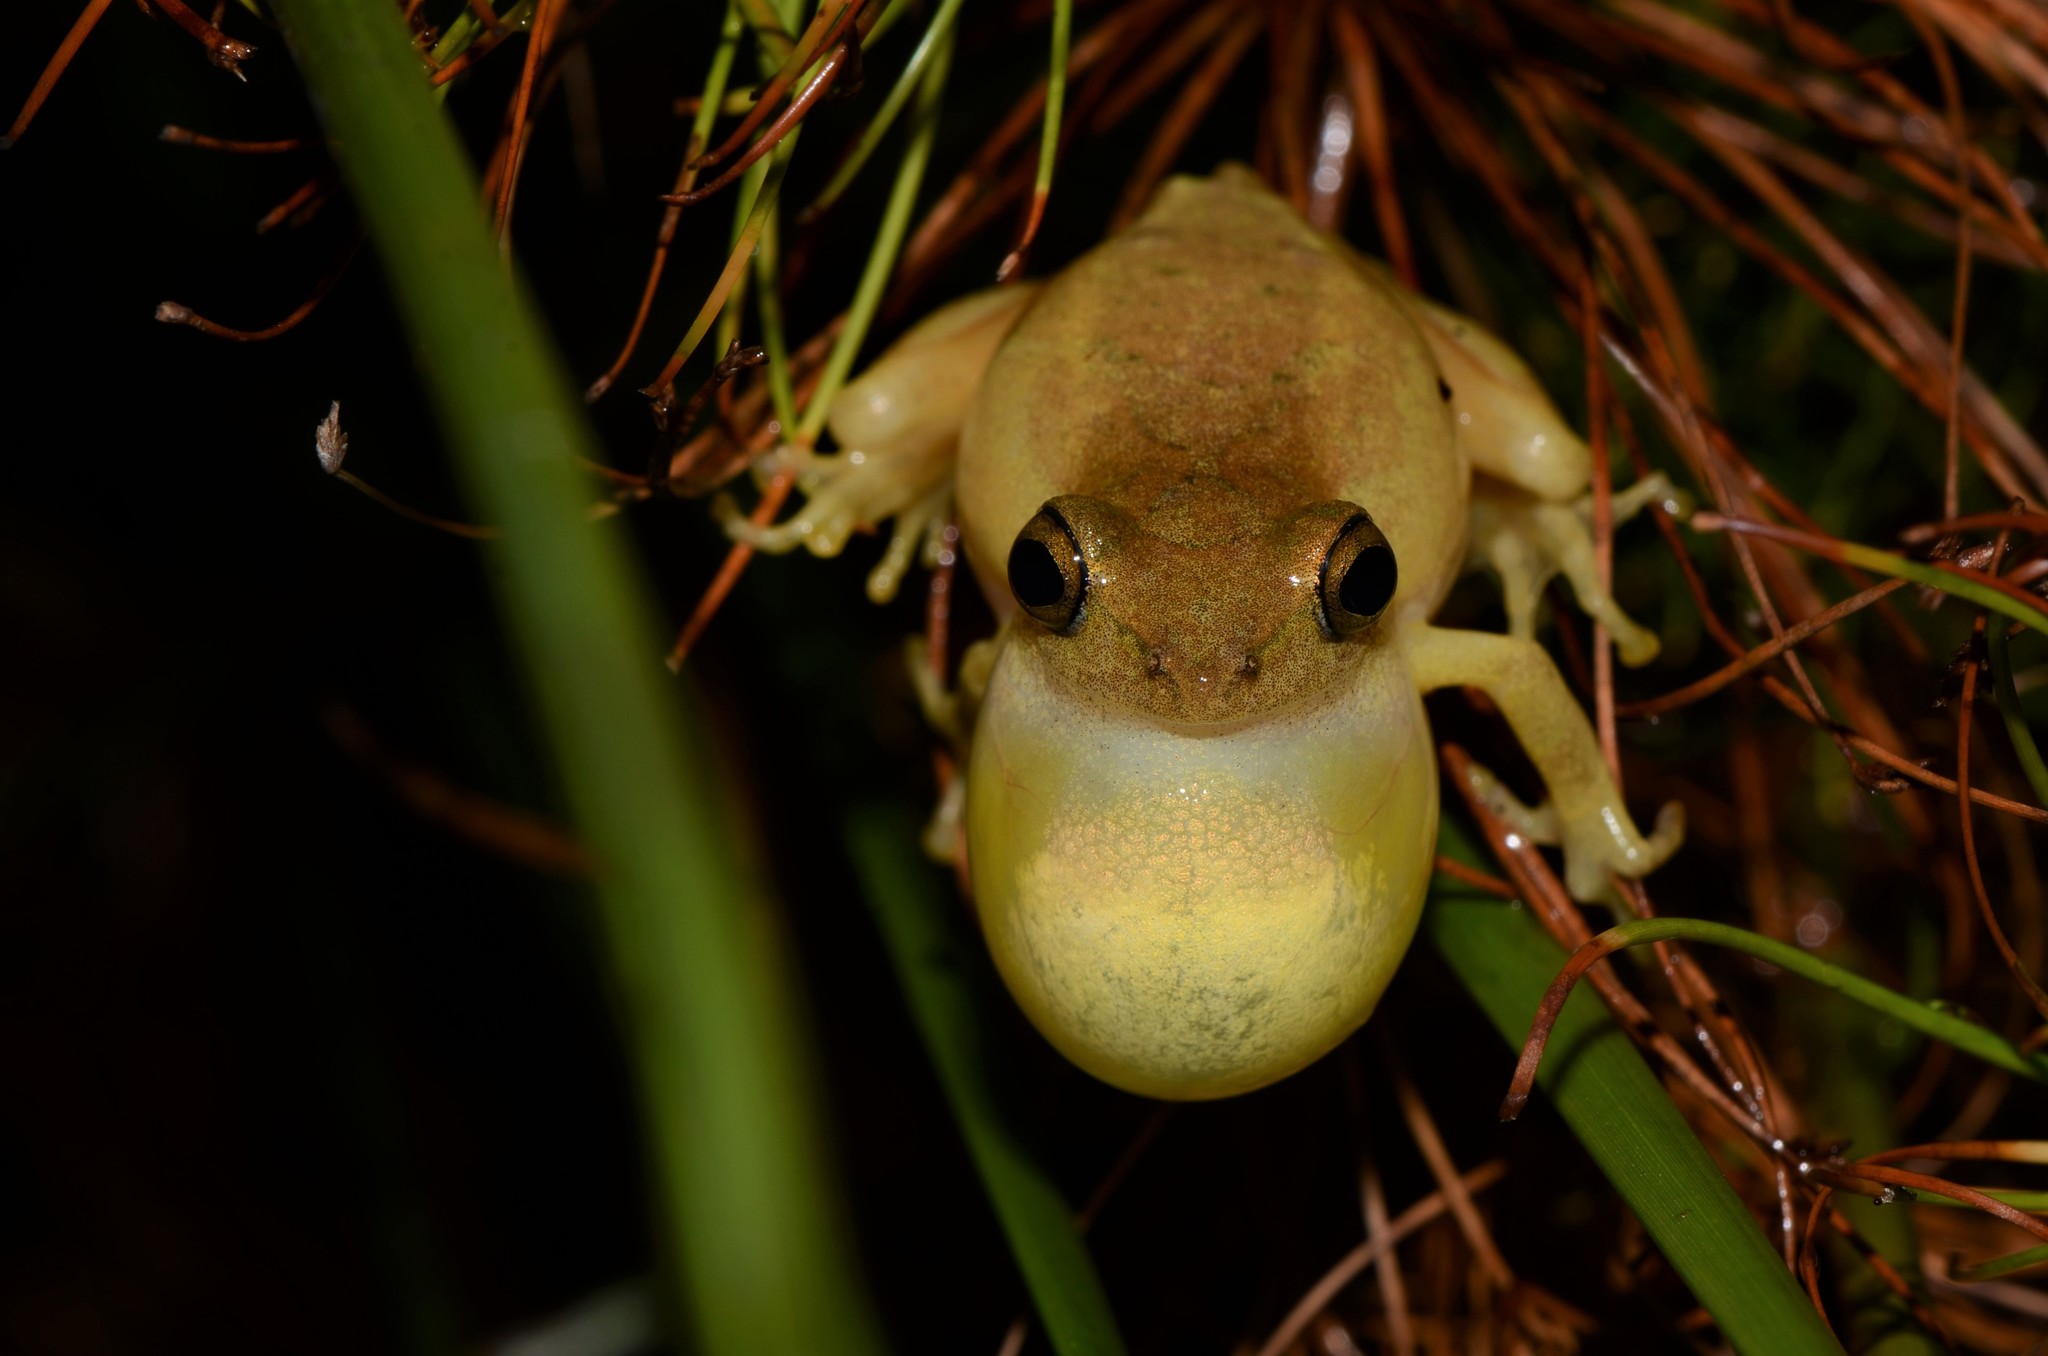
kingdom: Animalia
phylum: Chordata
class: Amphibia
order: Anura
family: Hyperoliidae
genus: Hyperolius
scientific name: Hyperolius tuberilinguis
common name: Tinker reed frog
